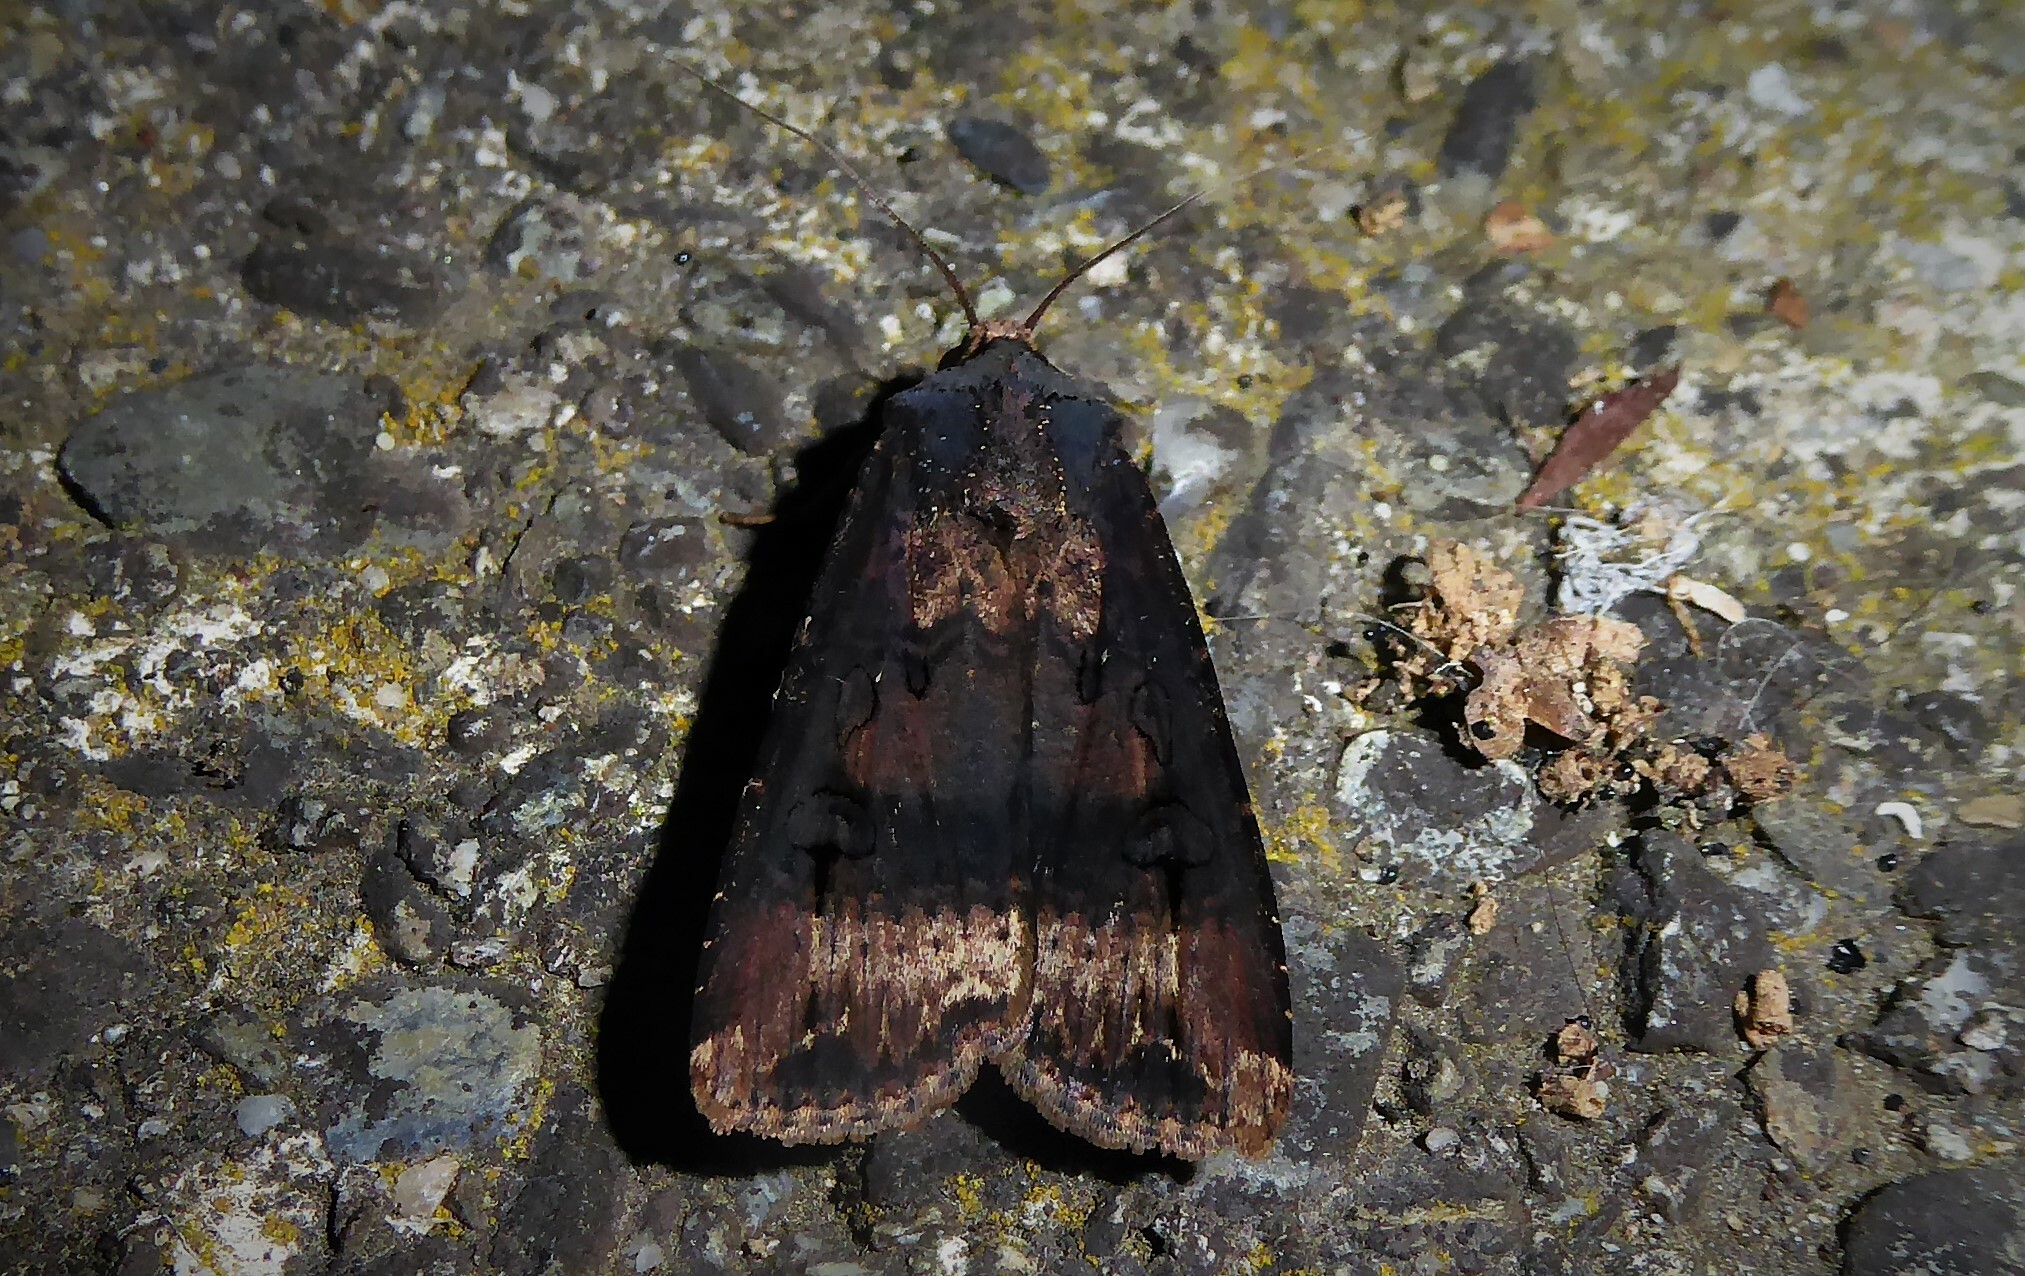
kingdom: Animalia
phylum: Arthropoda
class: Insecta
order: Lepidoptera
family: Noctuidae
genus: Agrotis
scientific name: Agrotis ipsilon
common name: Dark sword-grass
